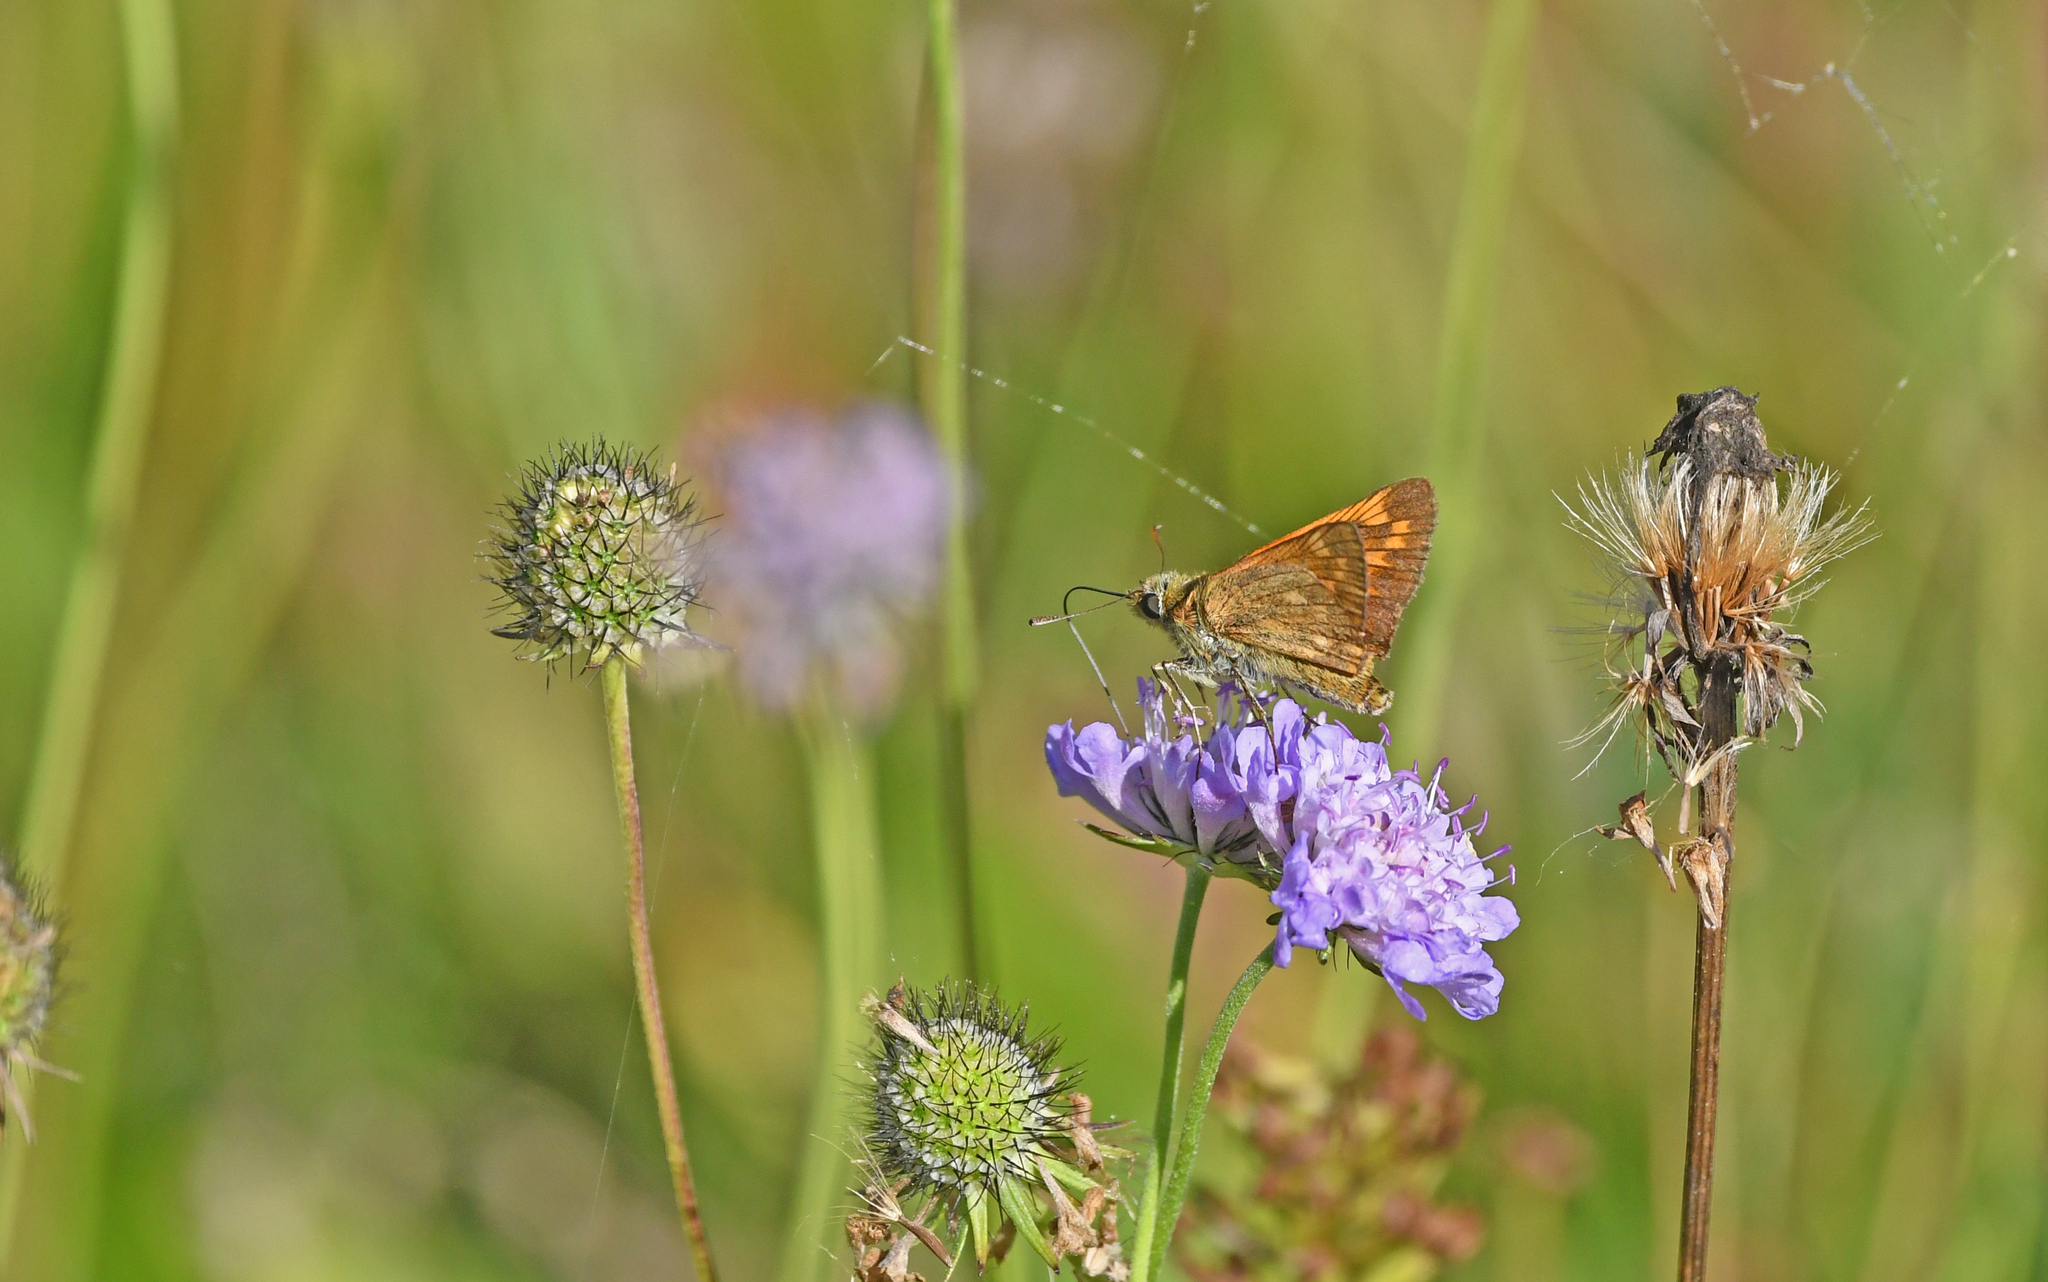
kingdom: Animalia
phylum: Arthropoda
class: Insecta
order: Lepidoptera
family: Hesperiidae
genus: Ochlodes
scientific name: Ochlodes venata
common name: Large skipper
